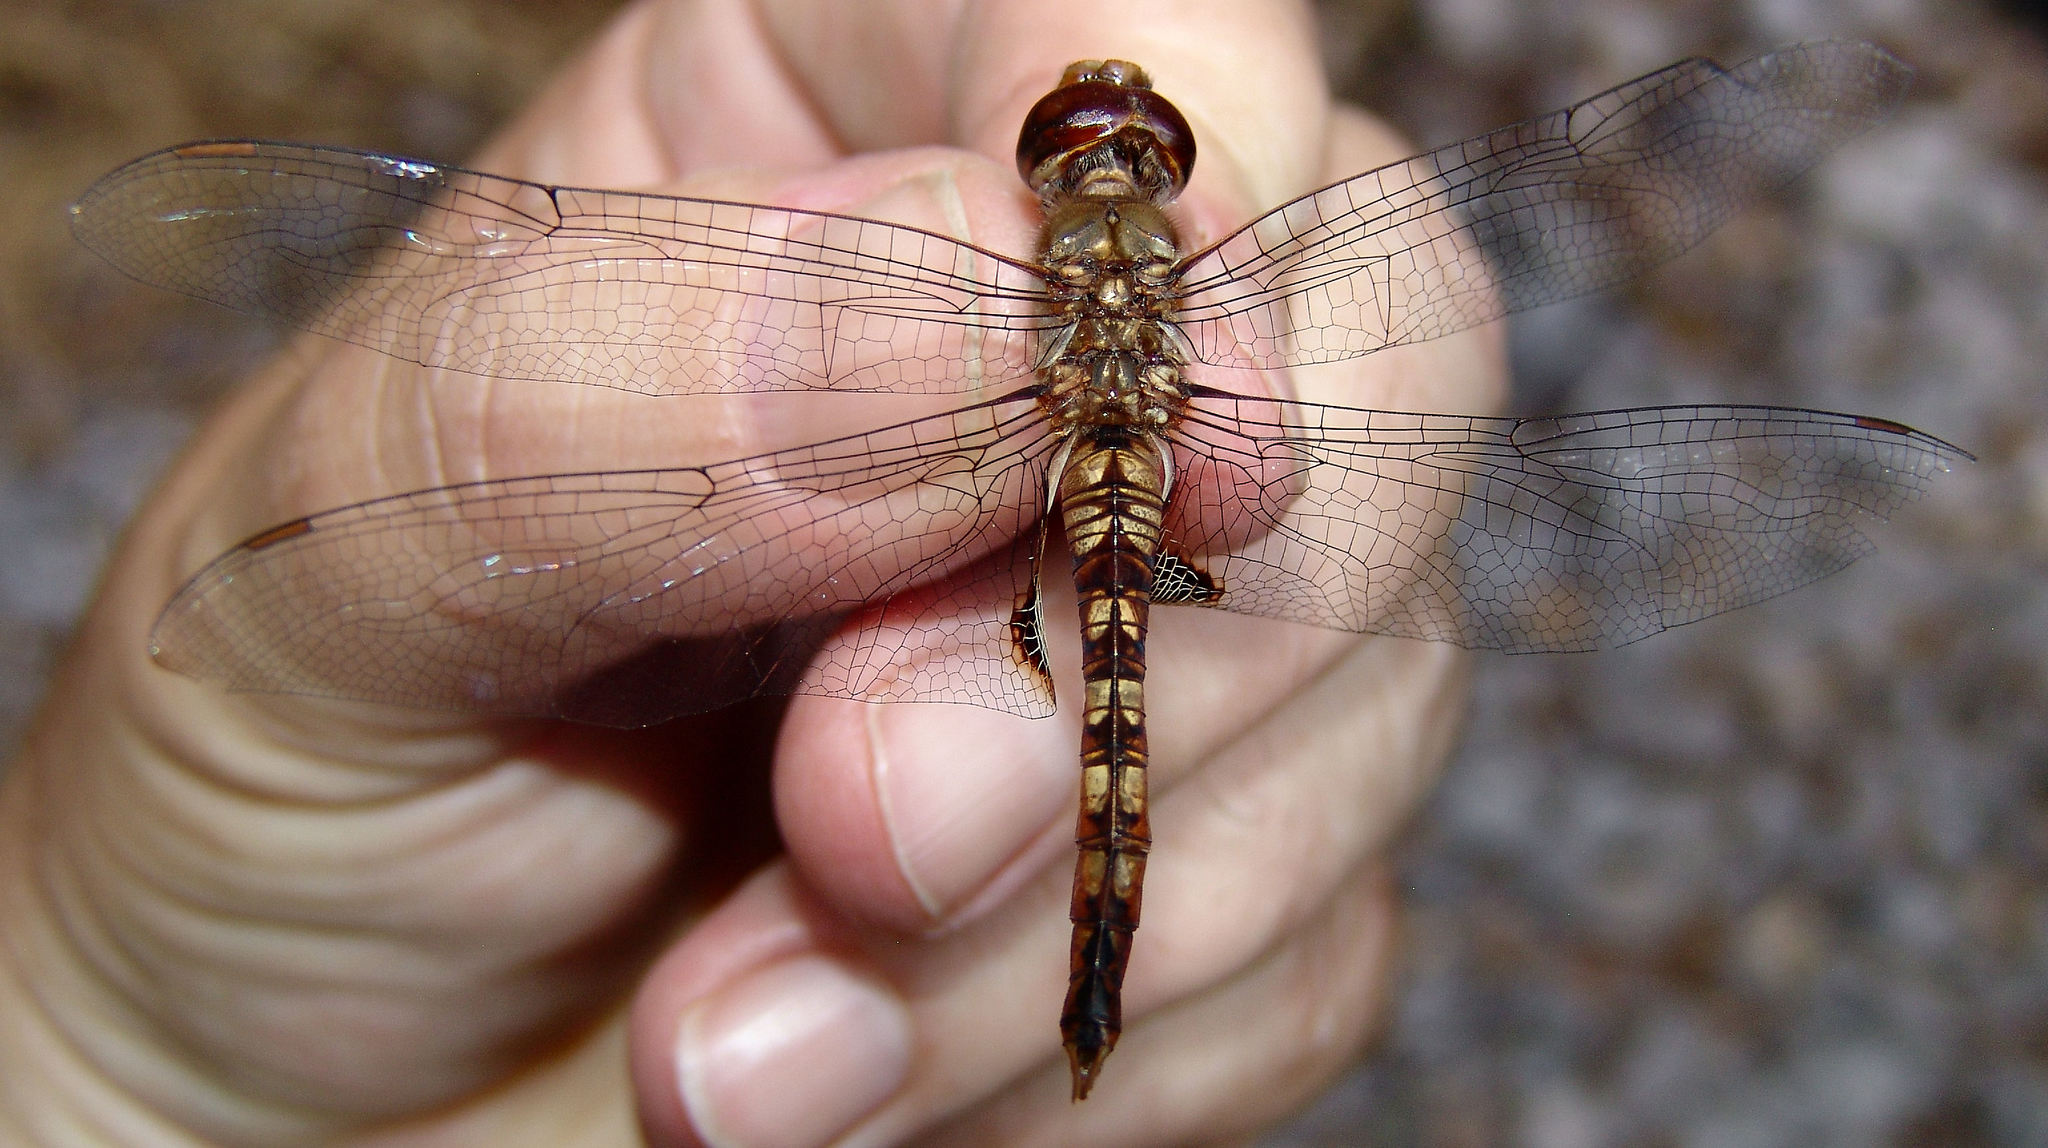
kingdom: Animalia
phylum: Arthropoda
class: Insecta
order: Odonata
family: Libellulidae
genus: Pantala
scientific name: Pantala hymenaea
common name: Spot-winged glider
